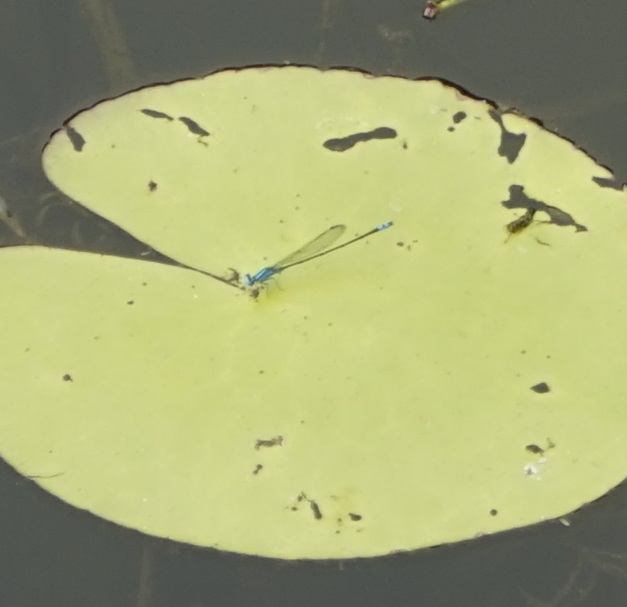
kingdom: Animalia
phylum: Arthropoda
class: Insecta
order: Odonata
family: Coenagrionidae
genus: Pseudagrion
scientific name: Pseudagrion microcephalum
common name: Blue riverdamsel
